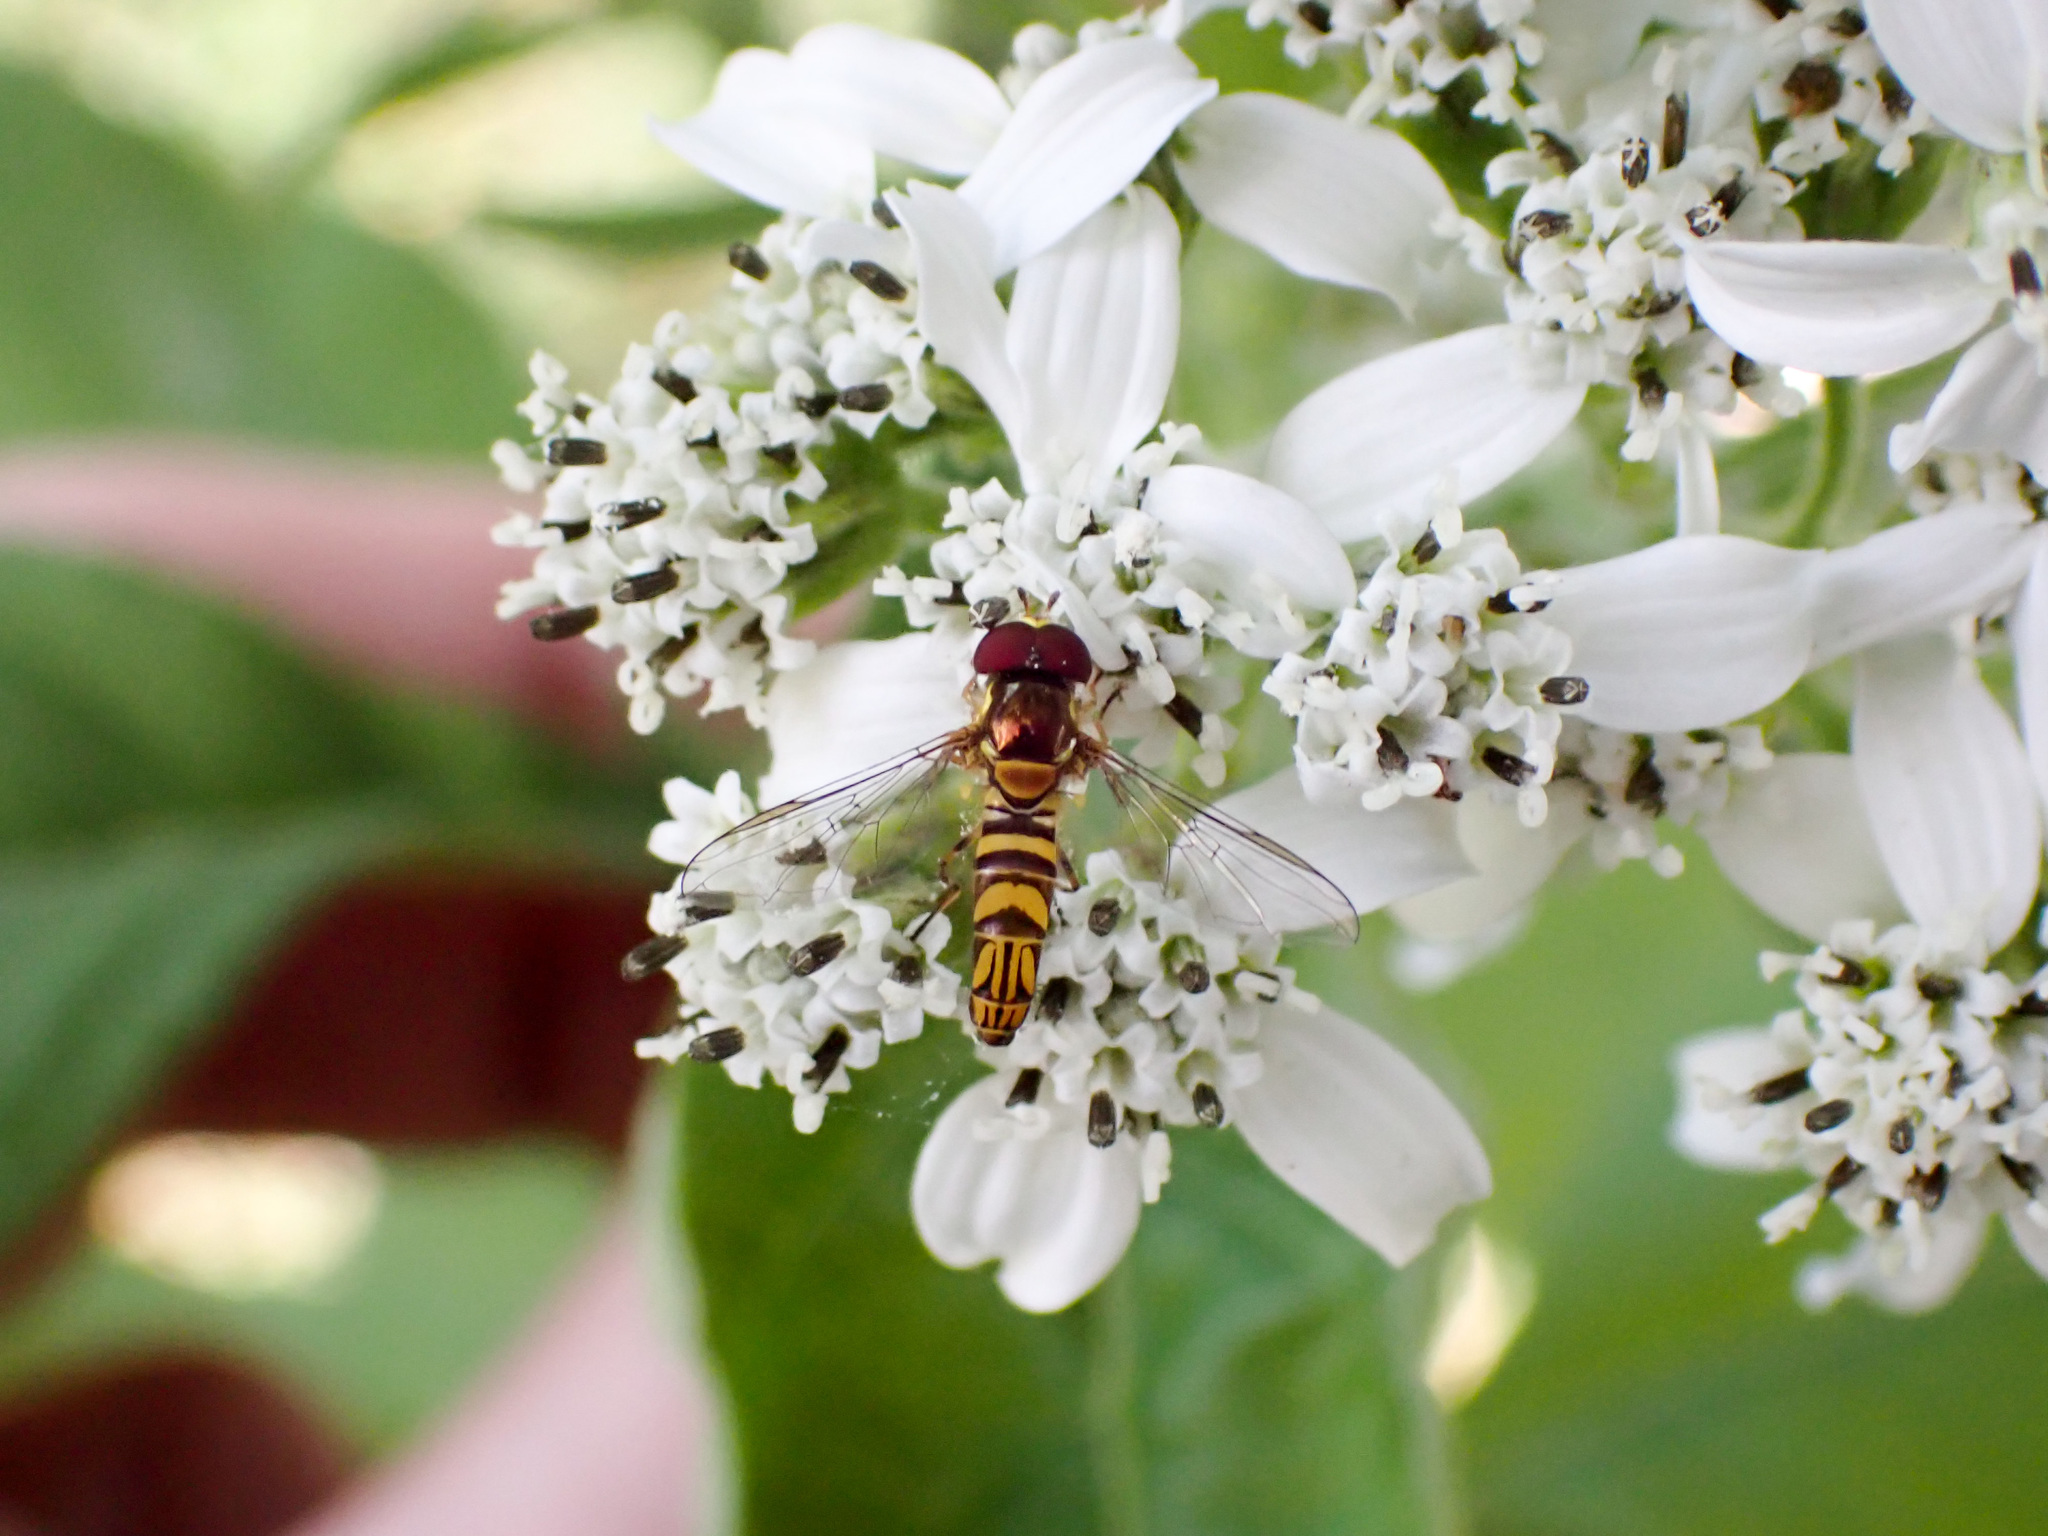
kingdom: Animalia
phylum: Arthropoda
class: Insecta
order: Diptera
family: Syrphidae
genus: Allograpta
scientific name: Allograpta obliqua
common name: Common oblique syrphid
